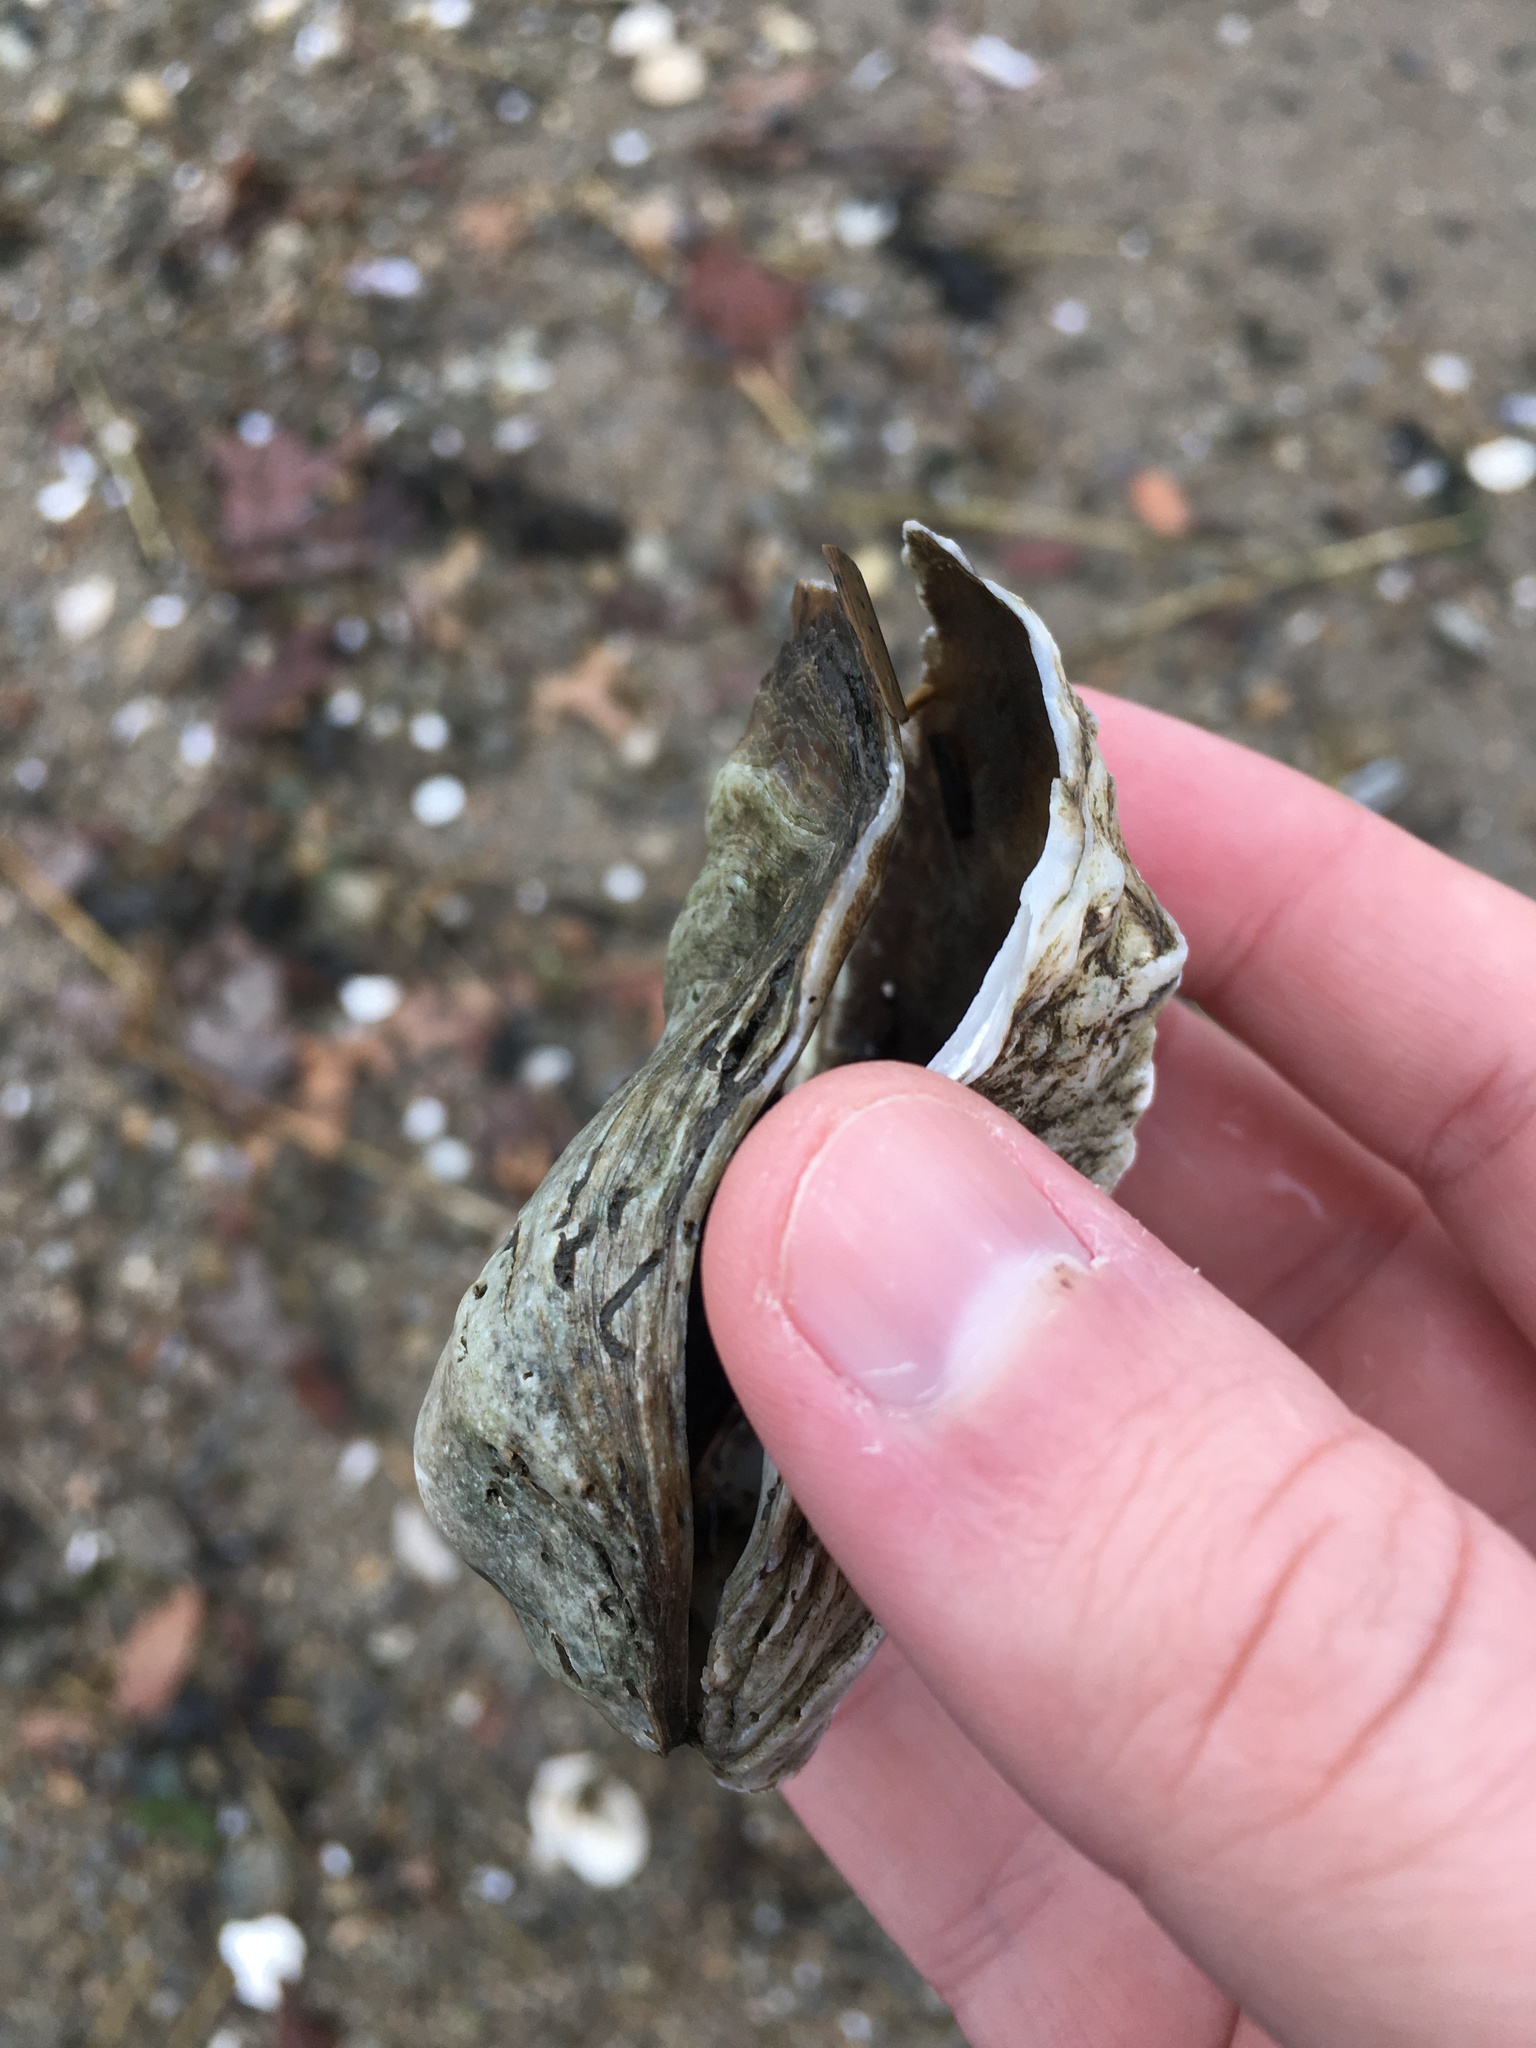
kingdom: Animalia
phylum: Mollusca
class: Bivalvia
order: Ostreida
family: Ostreidae
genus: Crassostrea
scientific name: Crassostrea virginica
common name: American oyster
